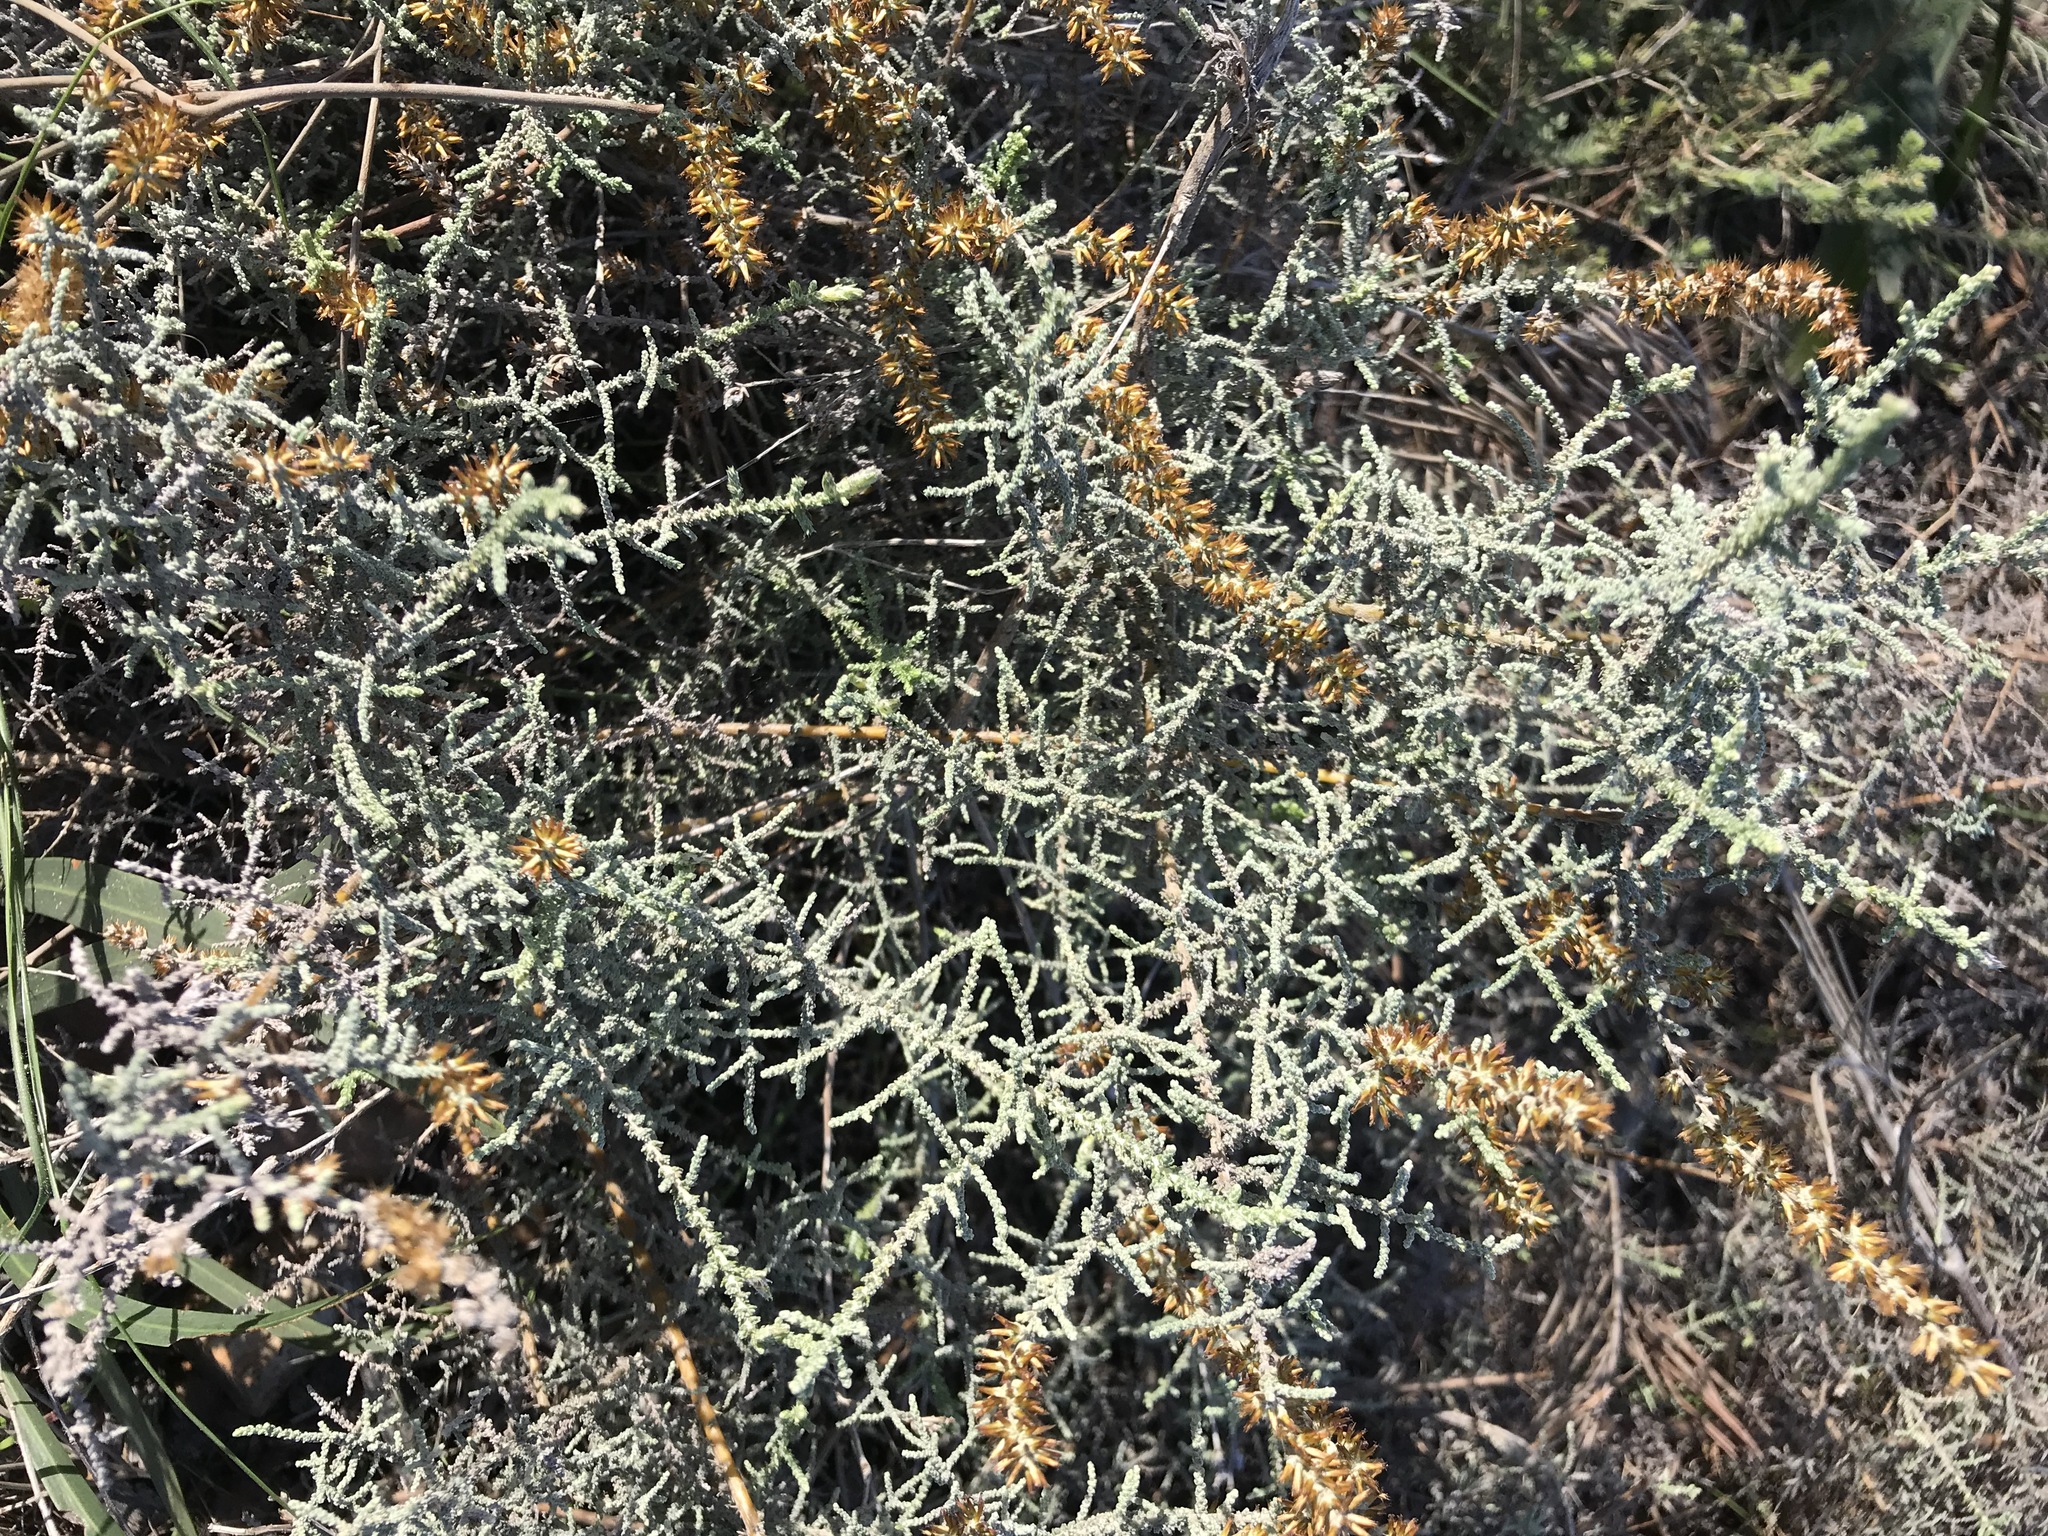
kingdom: Plantae
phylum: Tracheophyta
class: Magnoliopsida
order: Asterales
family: Asteraceae
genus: Seriphium
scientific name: Seriphium plumosum
